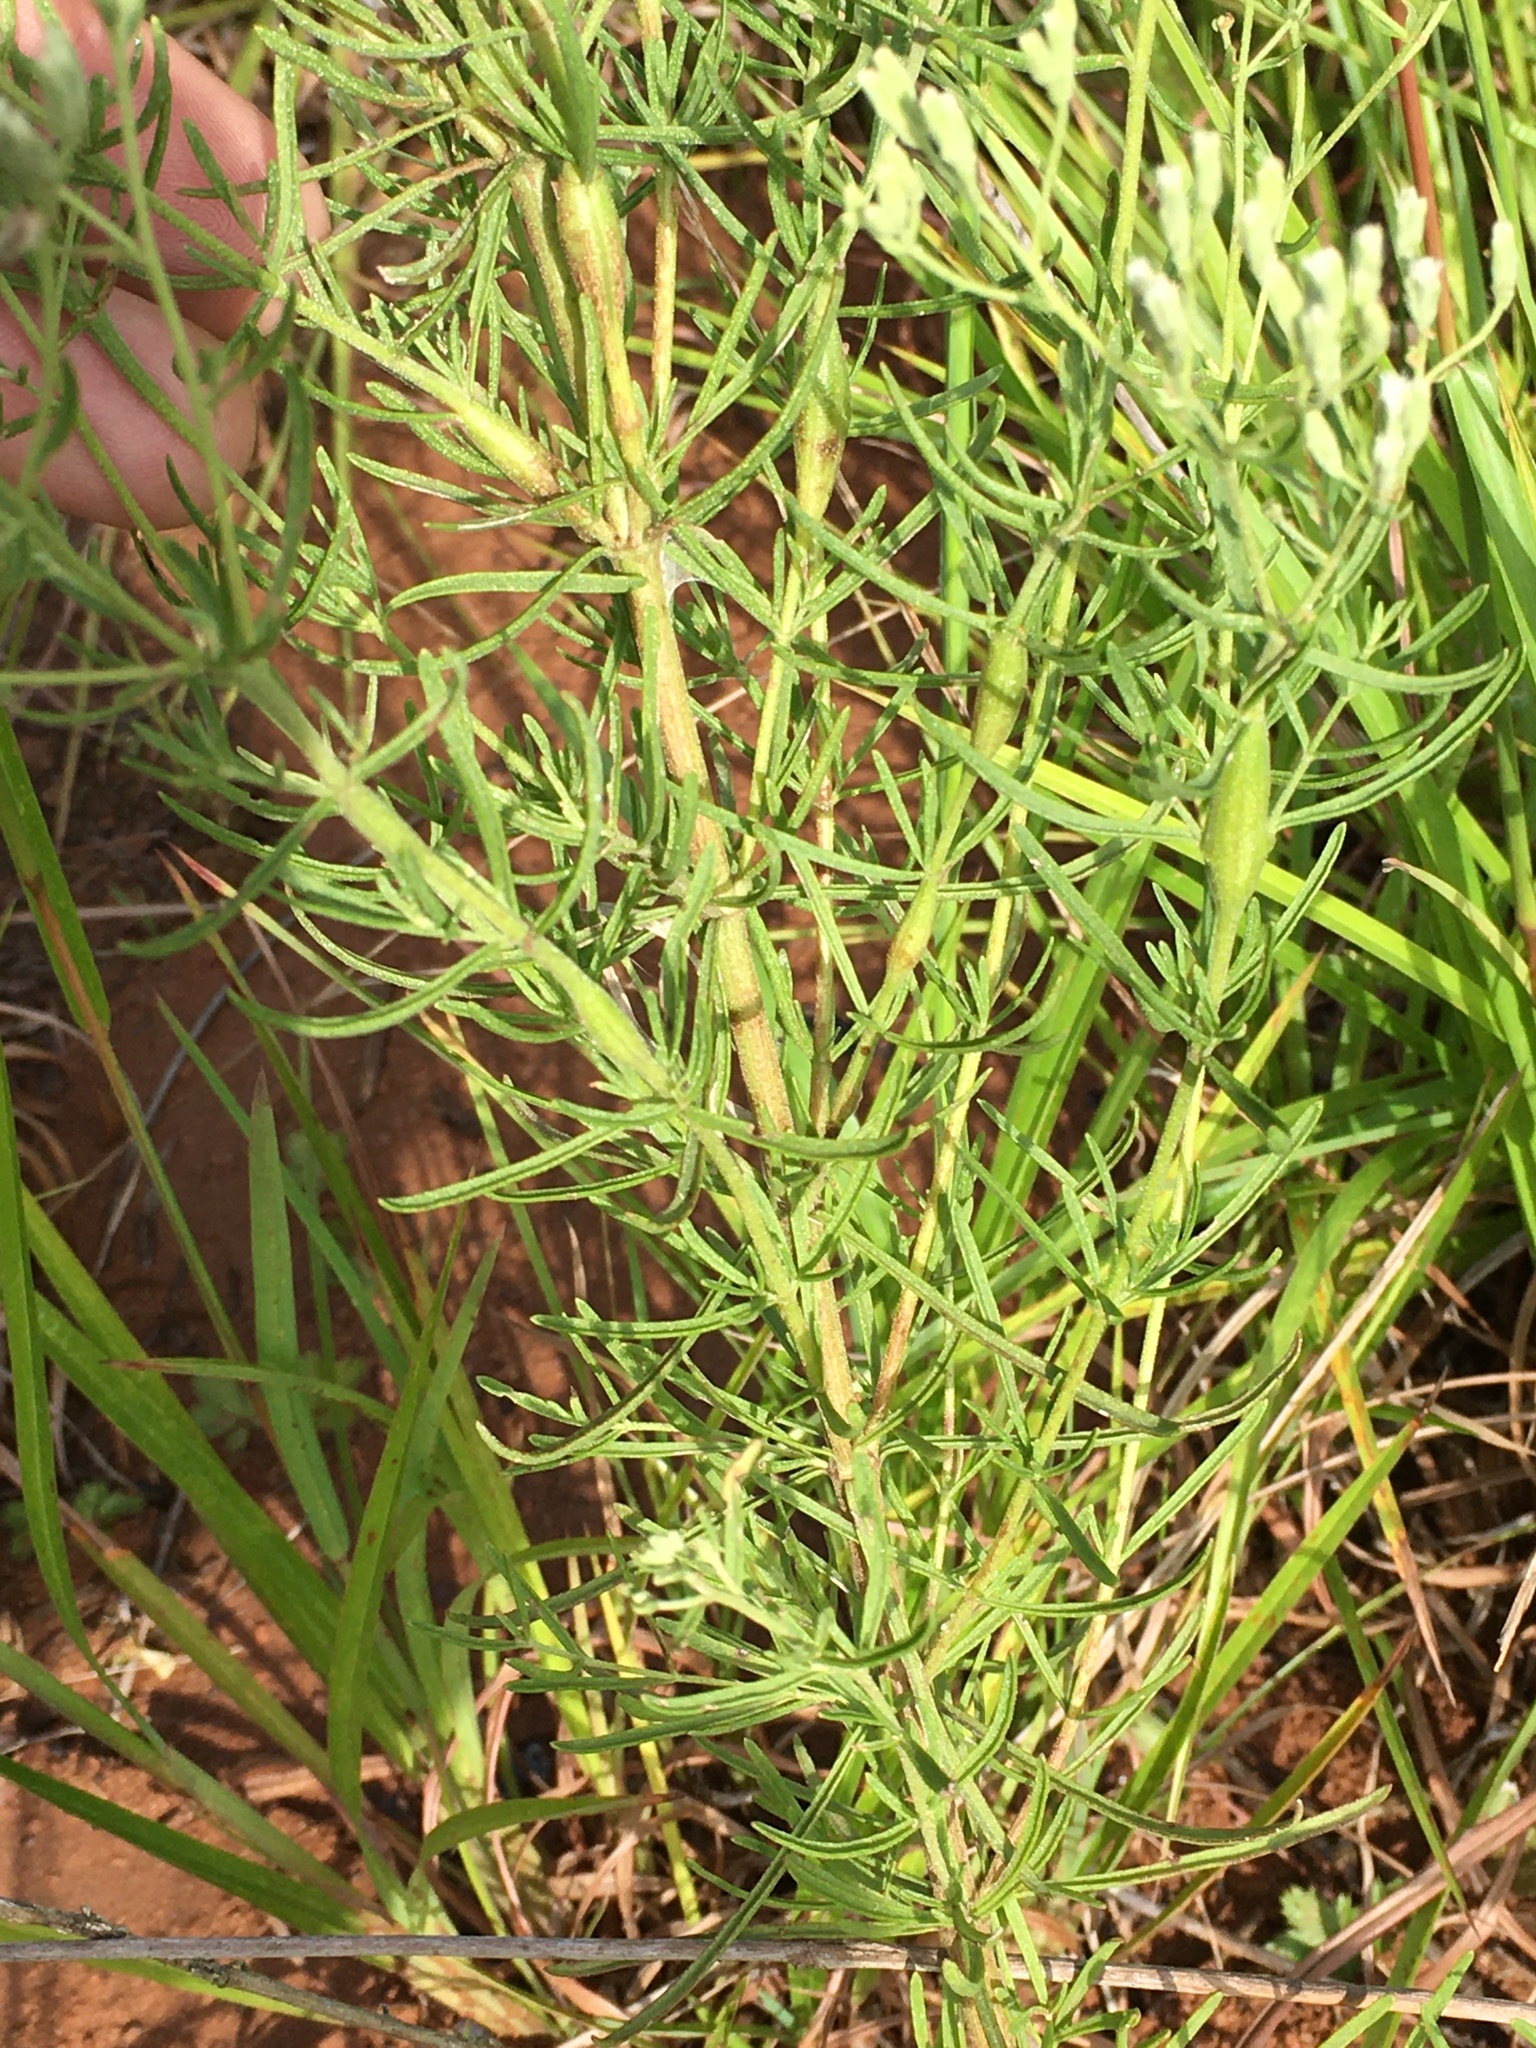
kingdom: Plantae
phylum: Tracheophyta
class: Magnoliopsida
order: Asterales
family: Asteraceae
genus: Eupatorium
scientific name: Eupatorium hyssopifolium
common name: Hyssop-leaf thoroughwort
